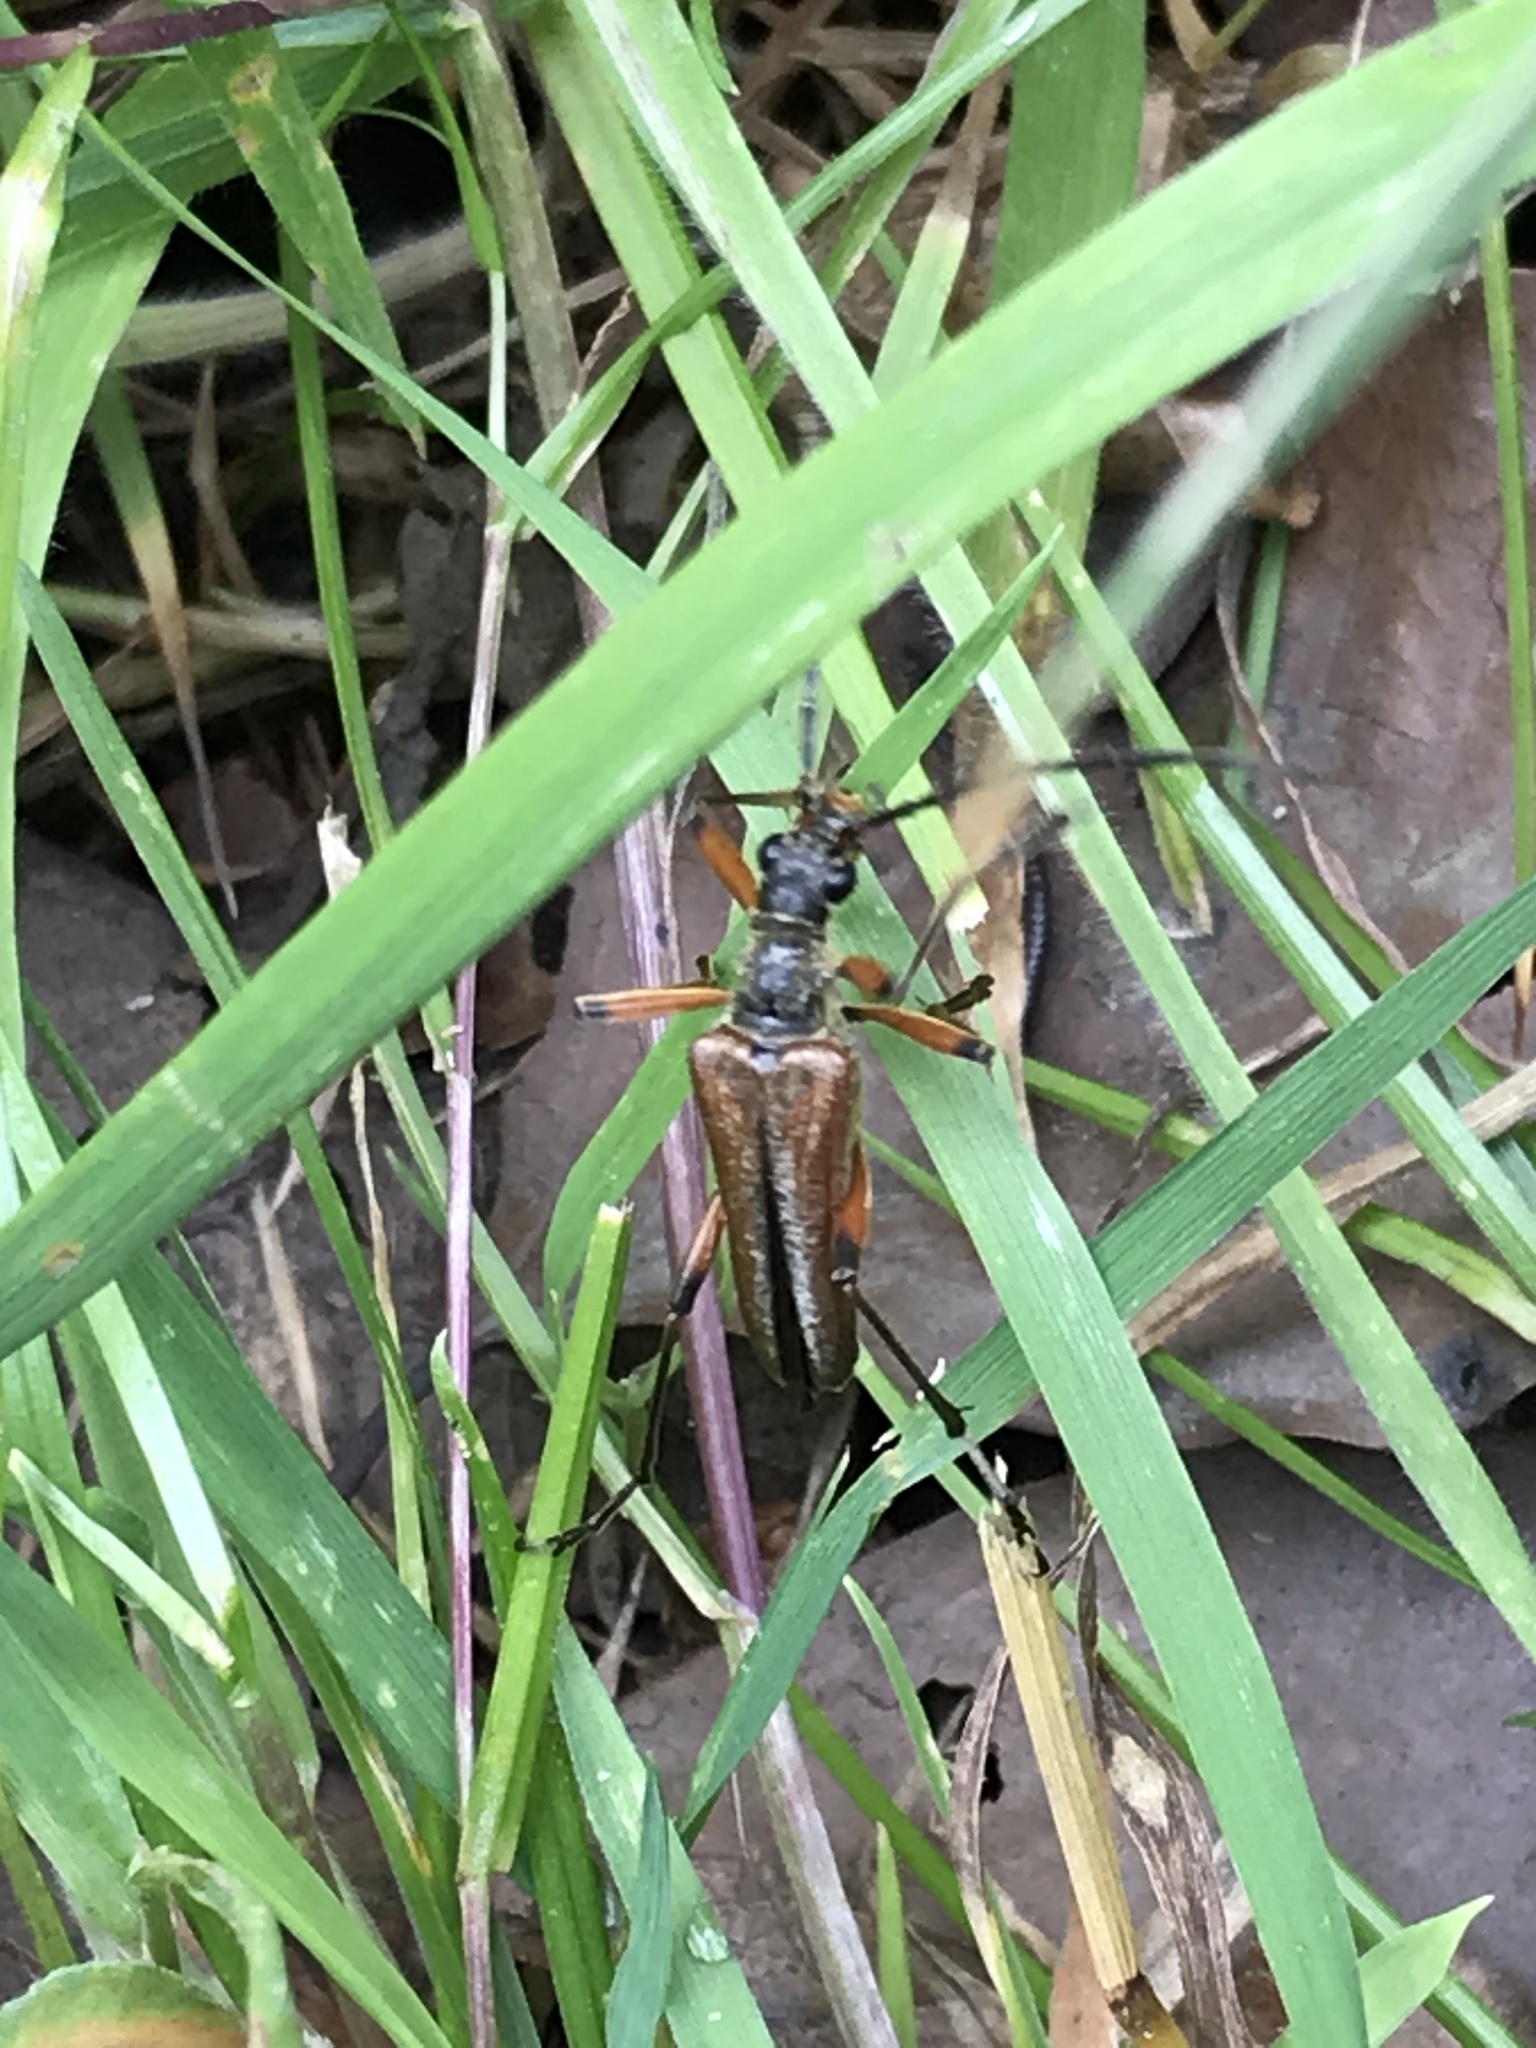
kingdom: Animalia
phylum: Arthropoda
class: Insecta
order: Coleoptera
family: Cerambycidae
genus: Stenocorus
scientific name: Stenocorus meridianus
